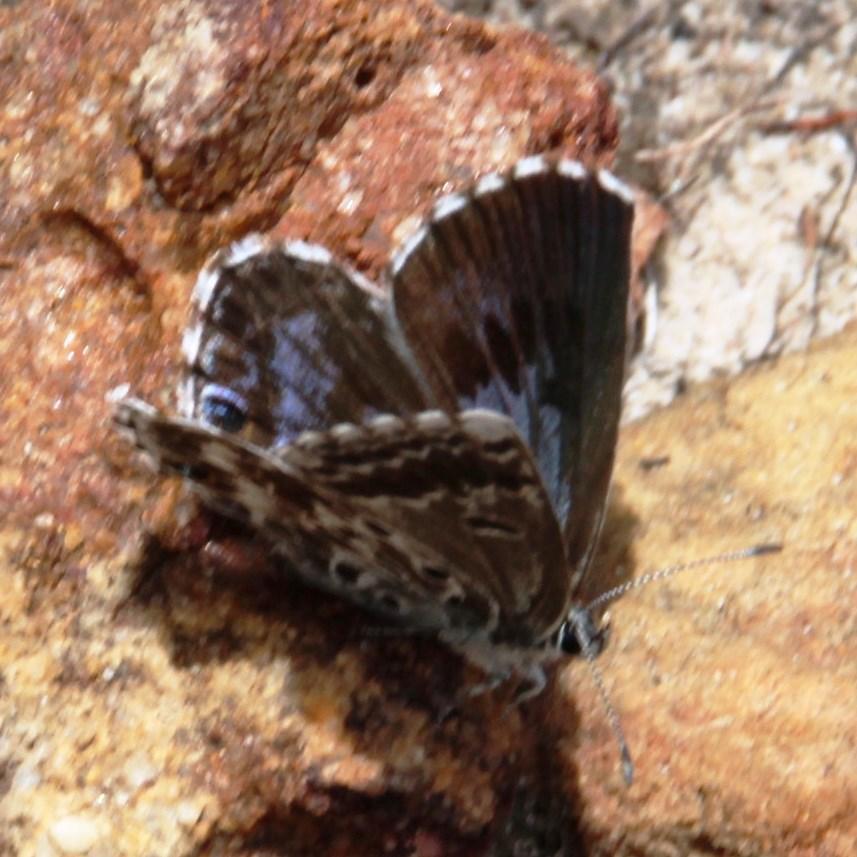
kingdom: Animalia
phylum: Arthropoda
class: Insecta
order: Lepidoptera
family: Lycaenidae
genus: Lepidochrysops
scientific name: Lepidochrysops
